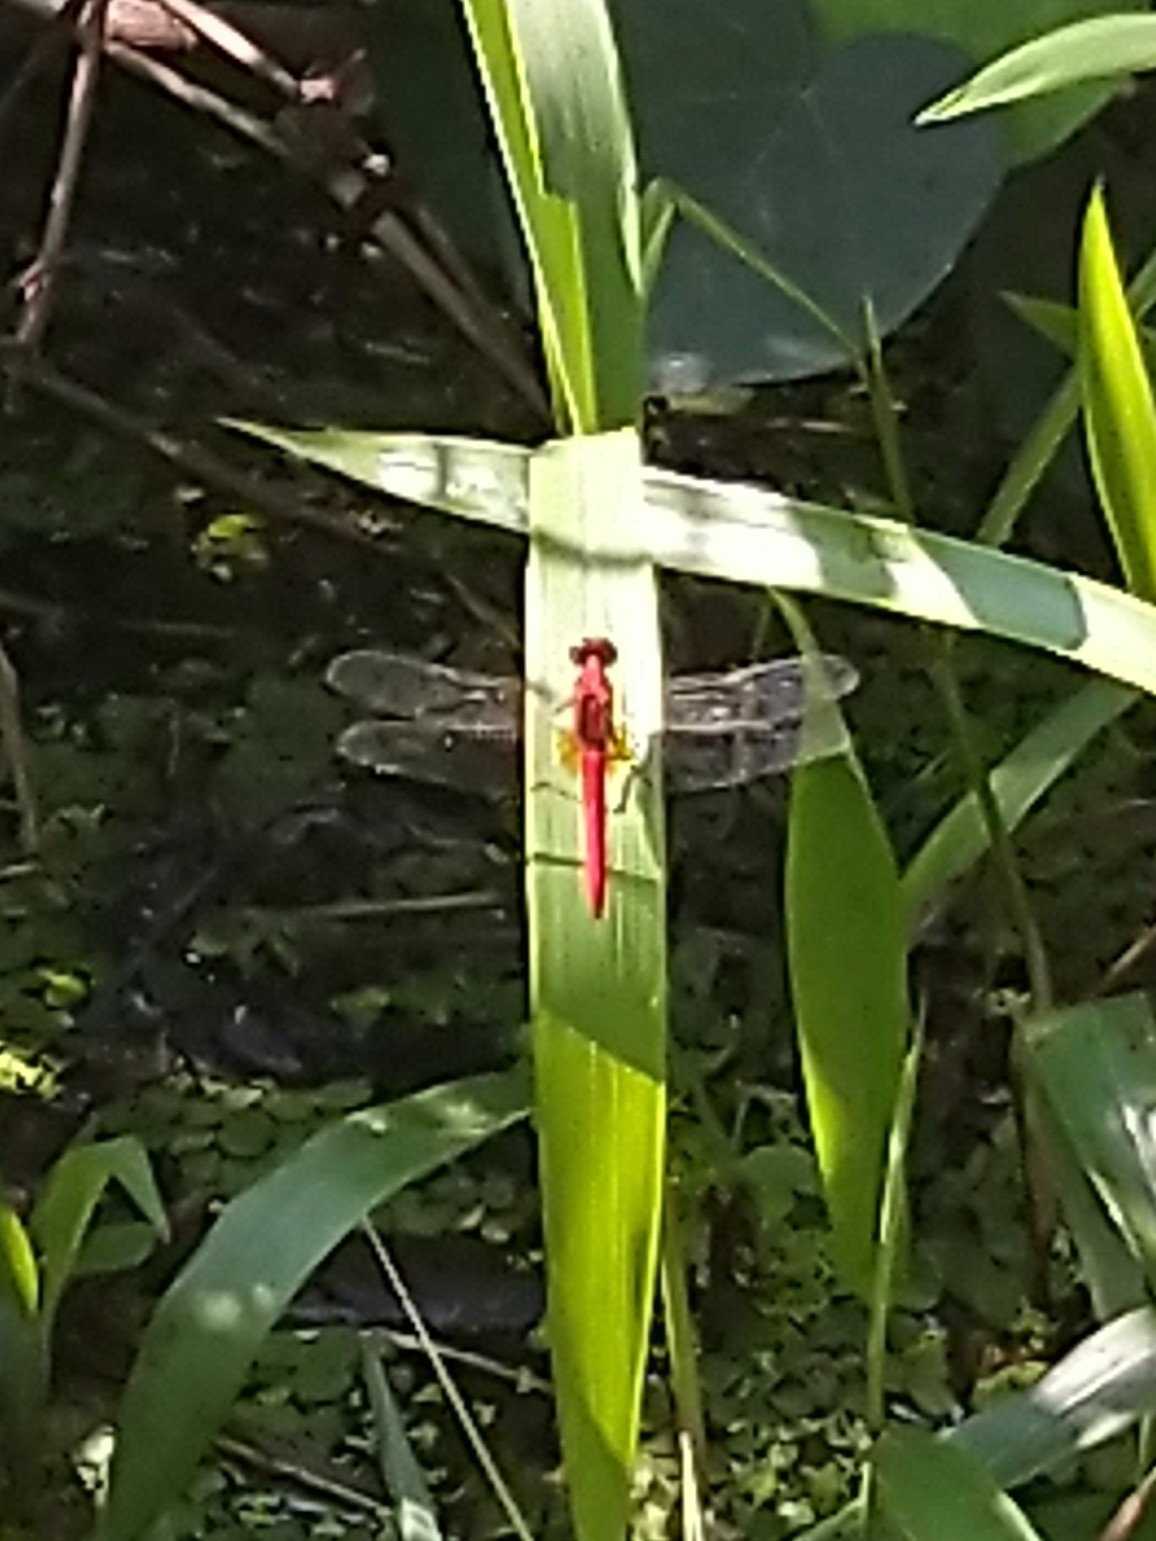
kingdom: Animalia
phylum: Arthropoda
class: Insecta
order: Odonata
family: Libellulidae
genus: Rhodothemis
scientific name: Rhodothemis rufa
